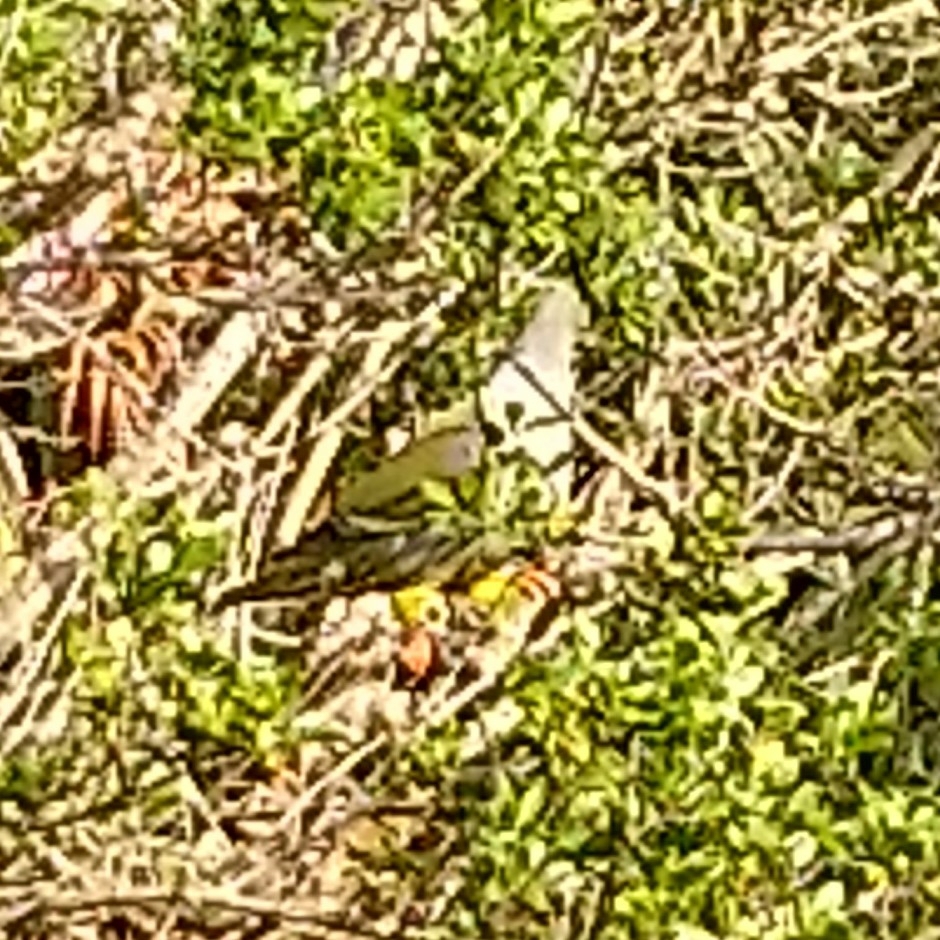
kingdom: Animalia
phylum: Chordata
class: Aves
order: Columbiformes
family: Columbidae
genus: Treron
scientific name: Treron calvus
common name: African green pigeon
